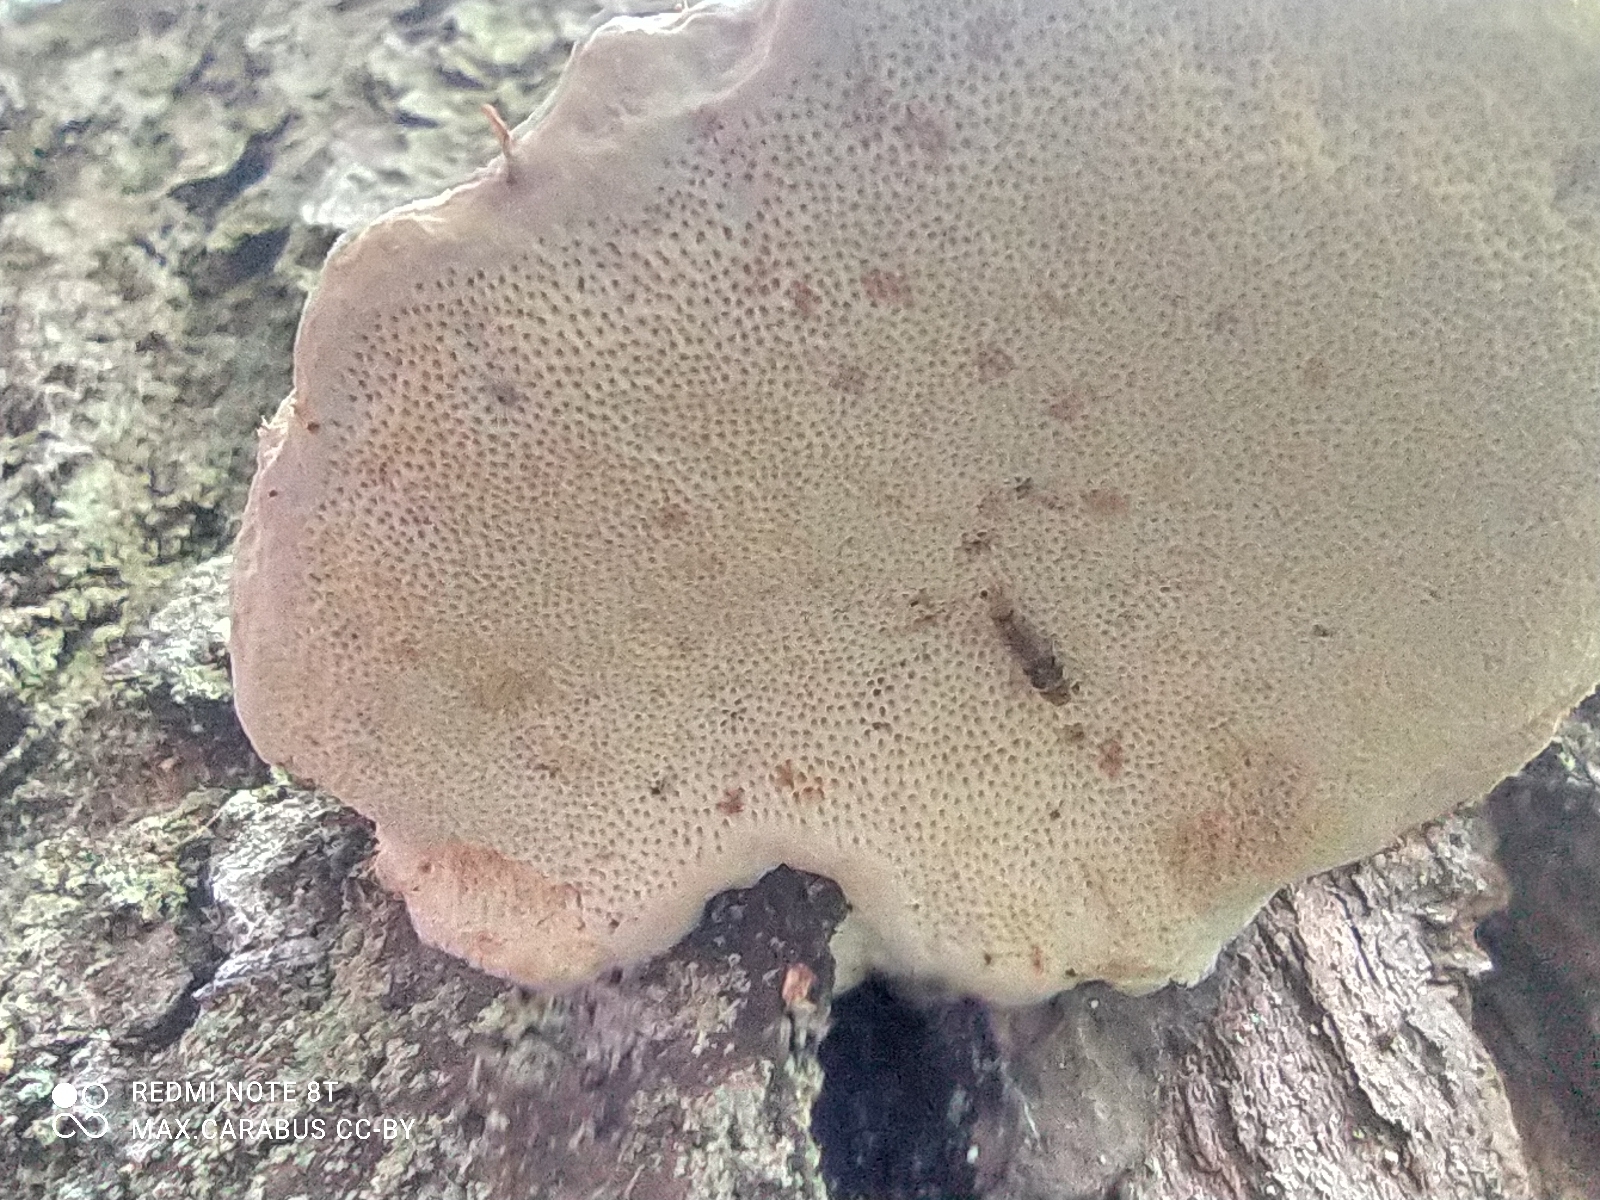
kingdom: Fungi
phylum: Basidiomycota
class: Agaricomycetes
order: Polyporales
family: Fomitopsidaceae
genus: Fomitopsis
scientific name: Fomitopsis pinicola
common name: Red-belted bracket
